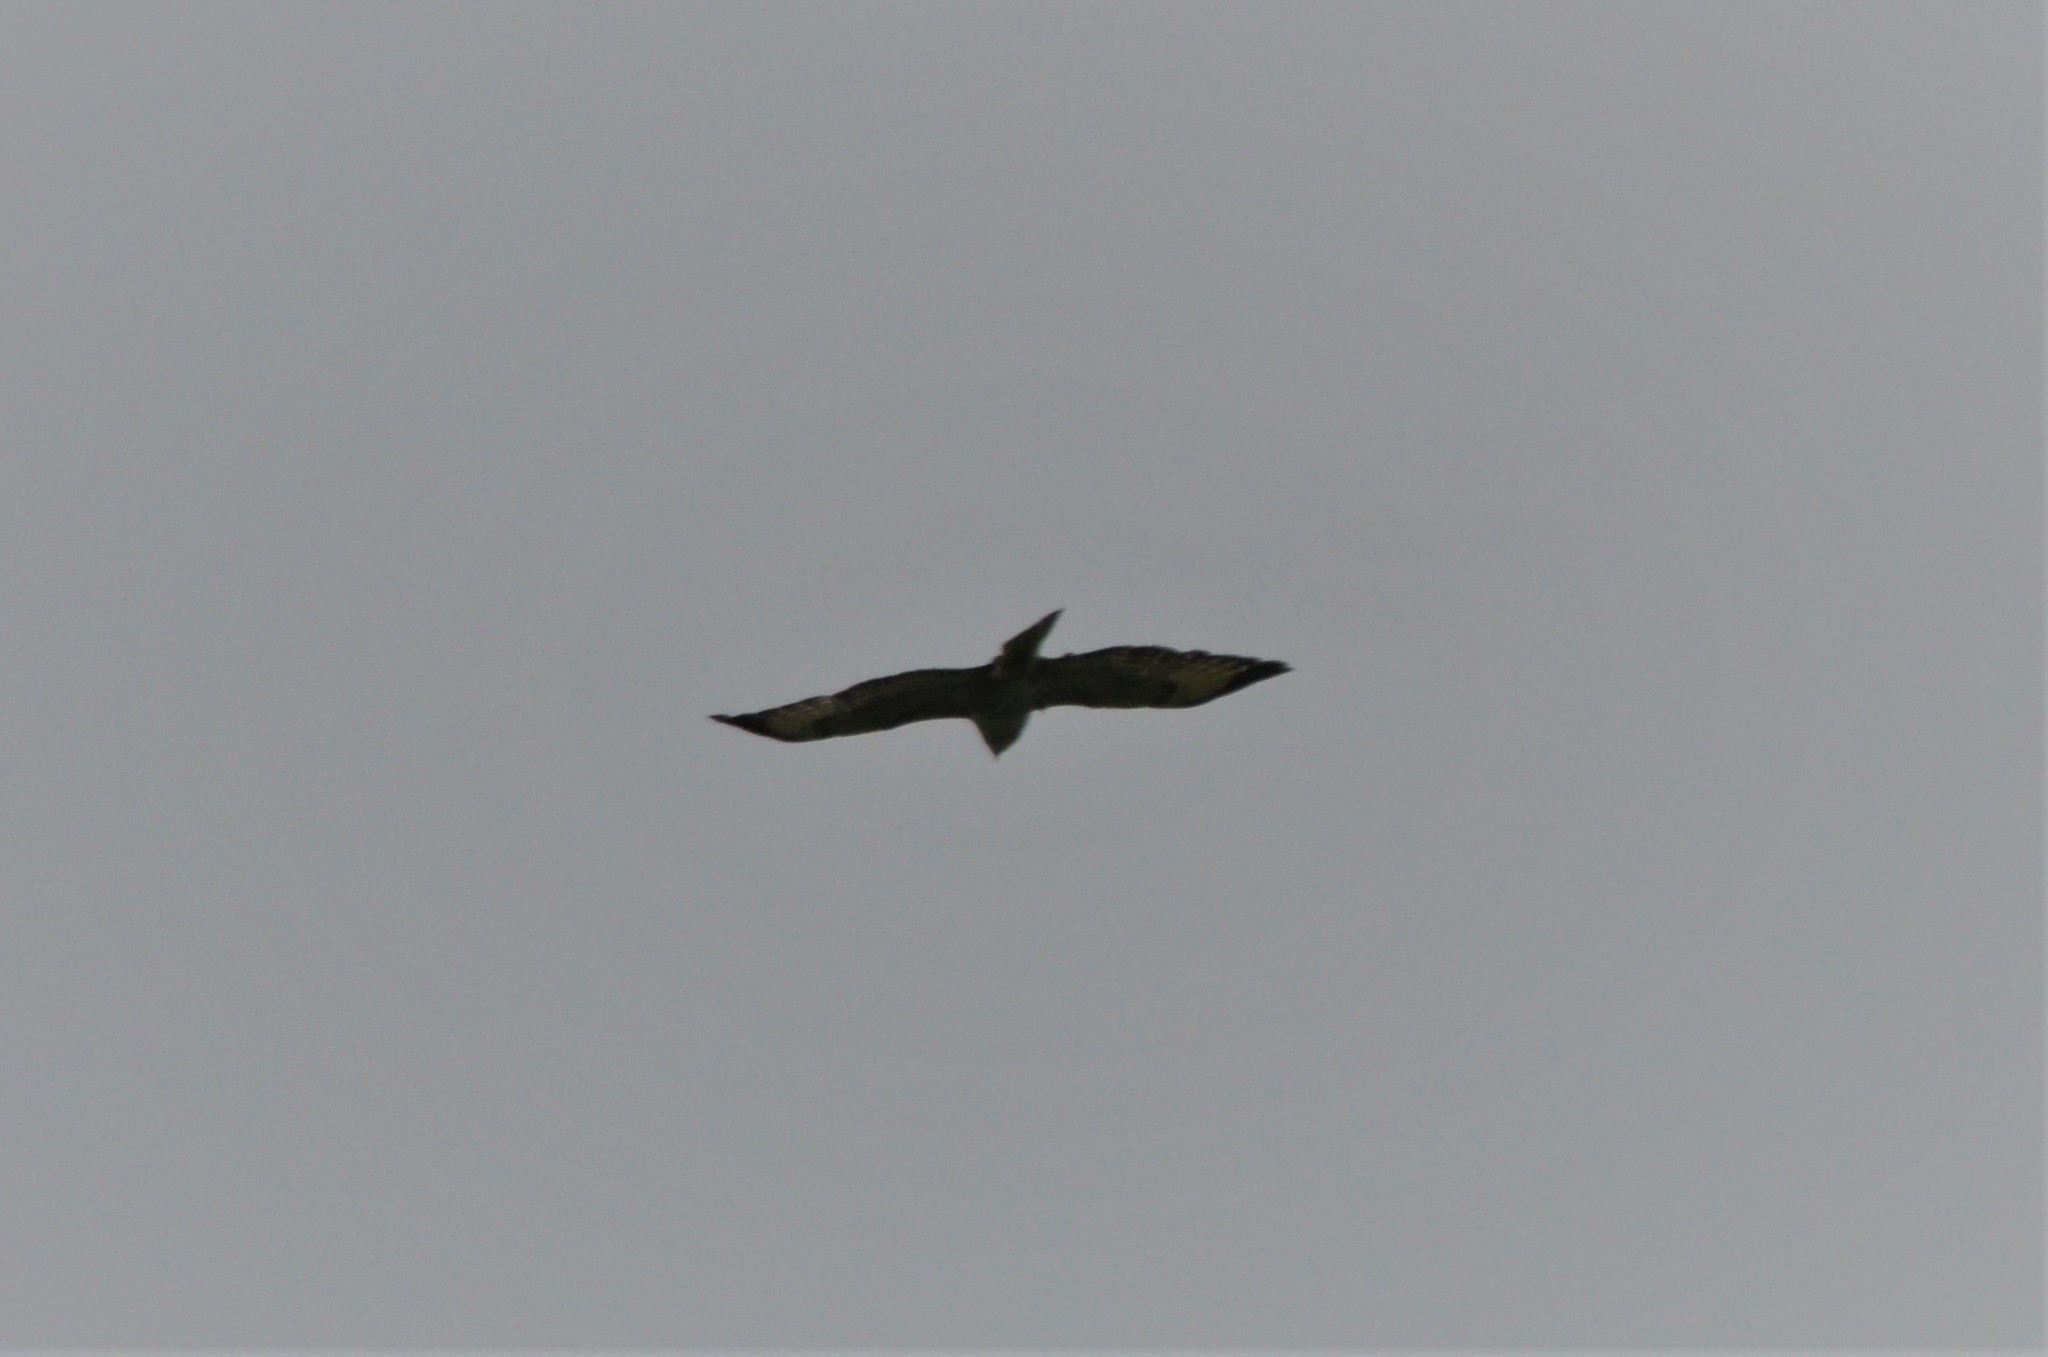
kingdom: Animalia
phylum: Chordata
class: Aves
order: Accipitriformes
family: Accipitridae
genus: Buteo
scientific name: Buteo buteo
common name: Common buzzard
